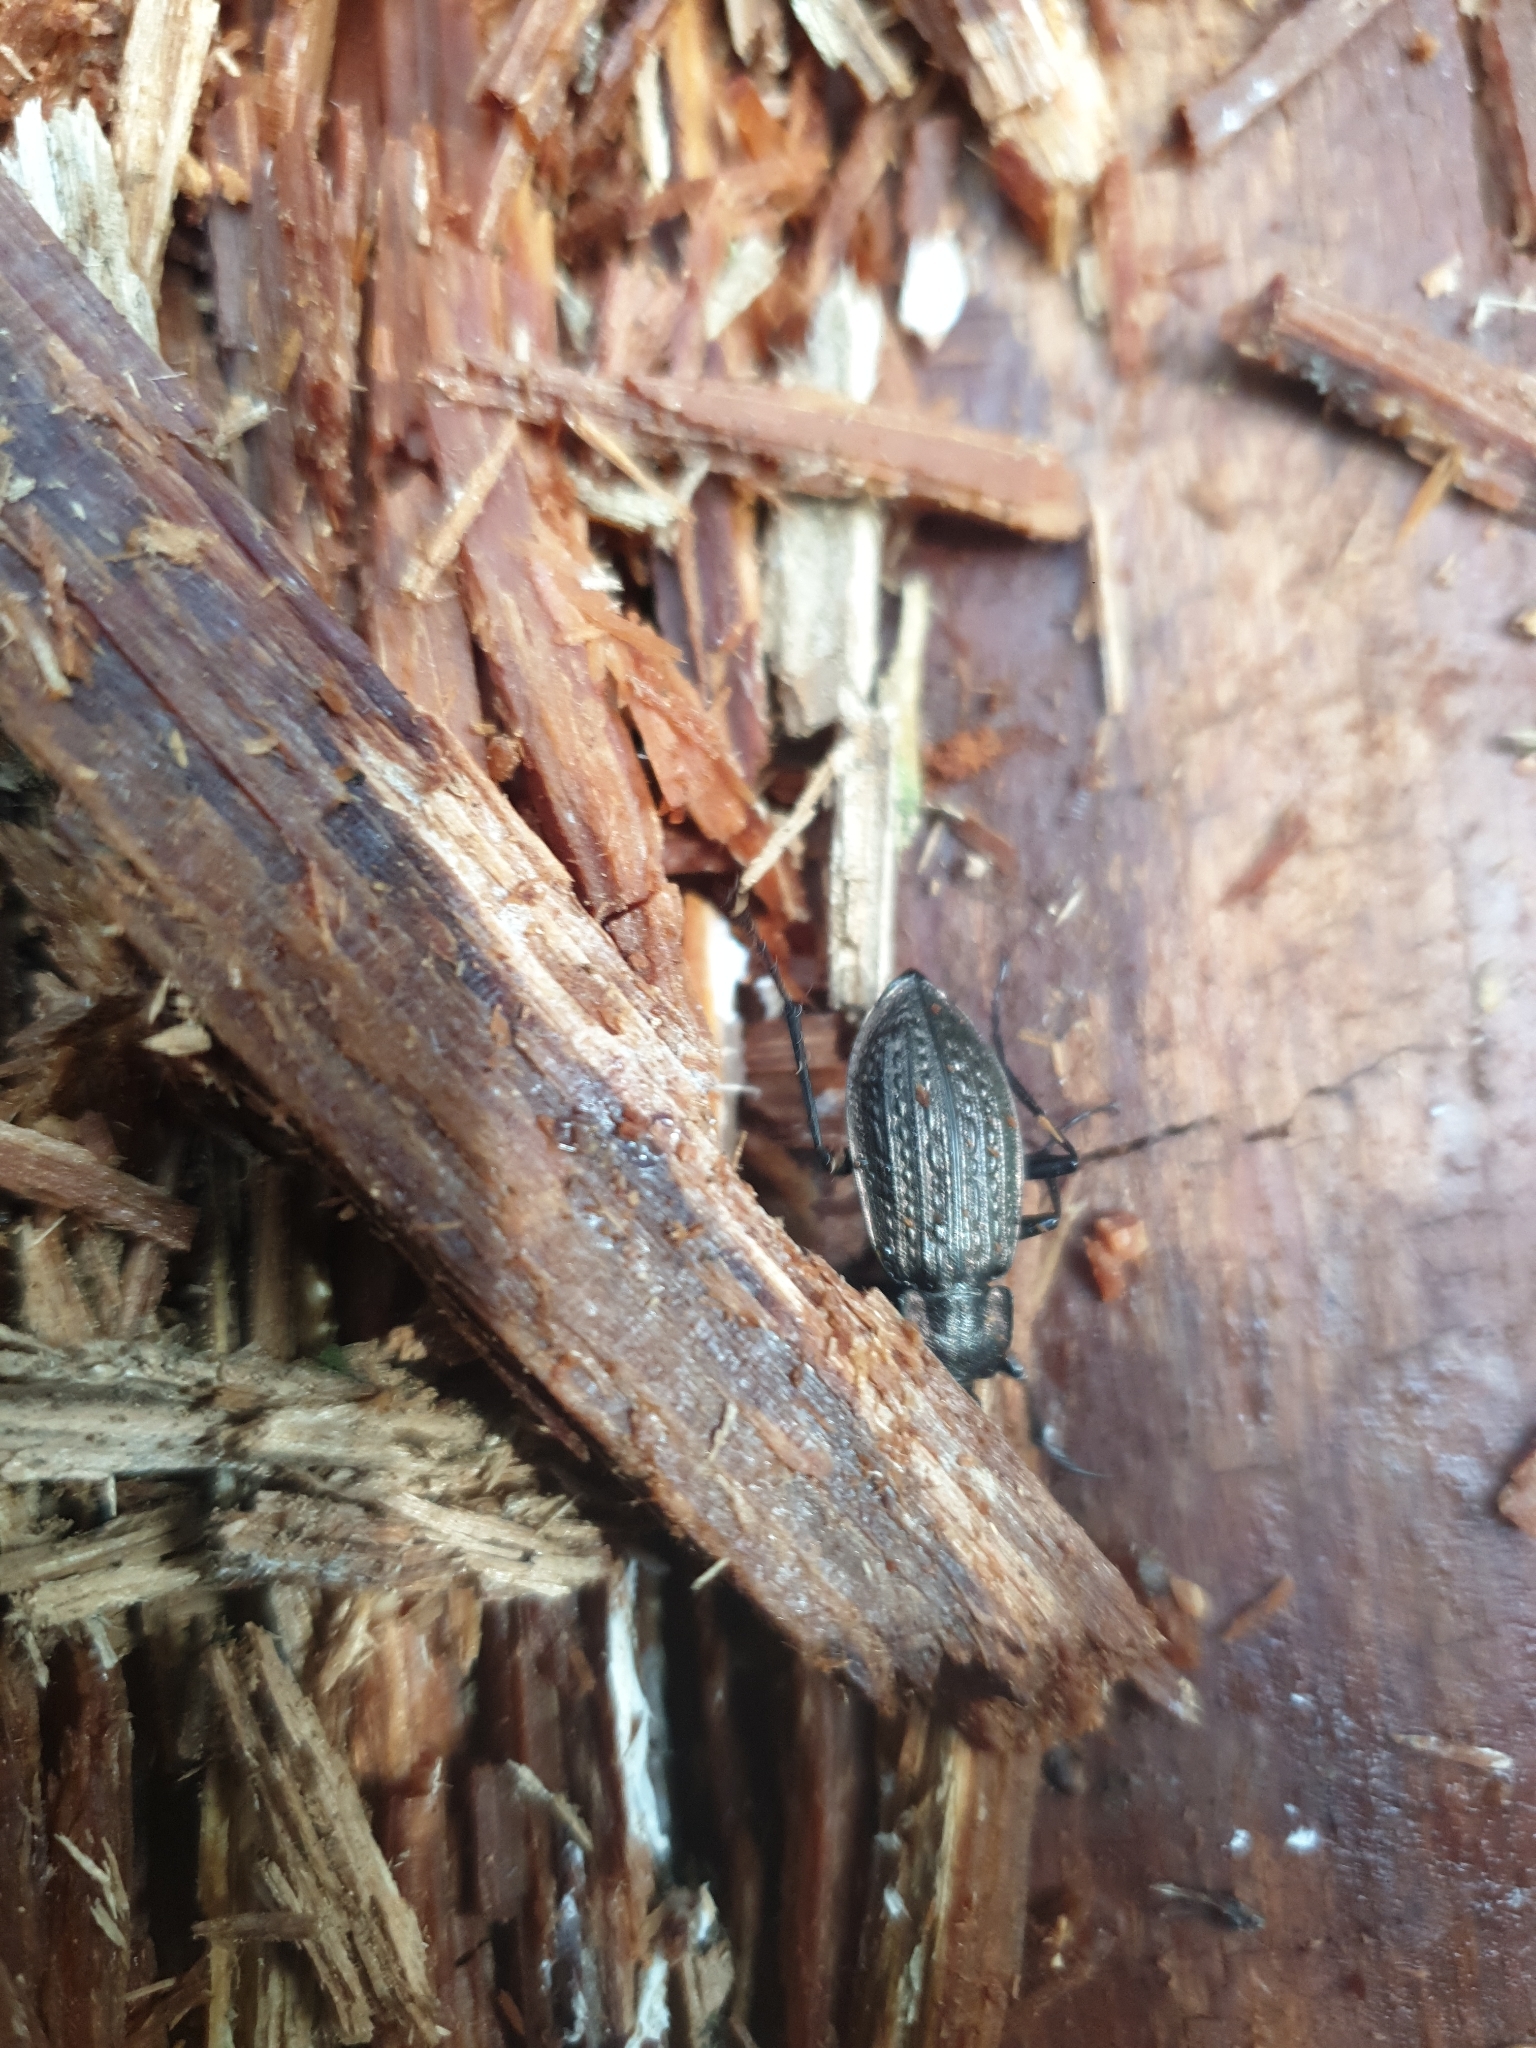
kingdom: Animalia
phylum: Arthropoda
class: Insecta
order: Coleoptera
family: Carabidae
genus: Carabus
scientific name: Carabus granulatus
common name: Granulate ground beetle
